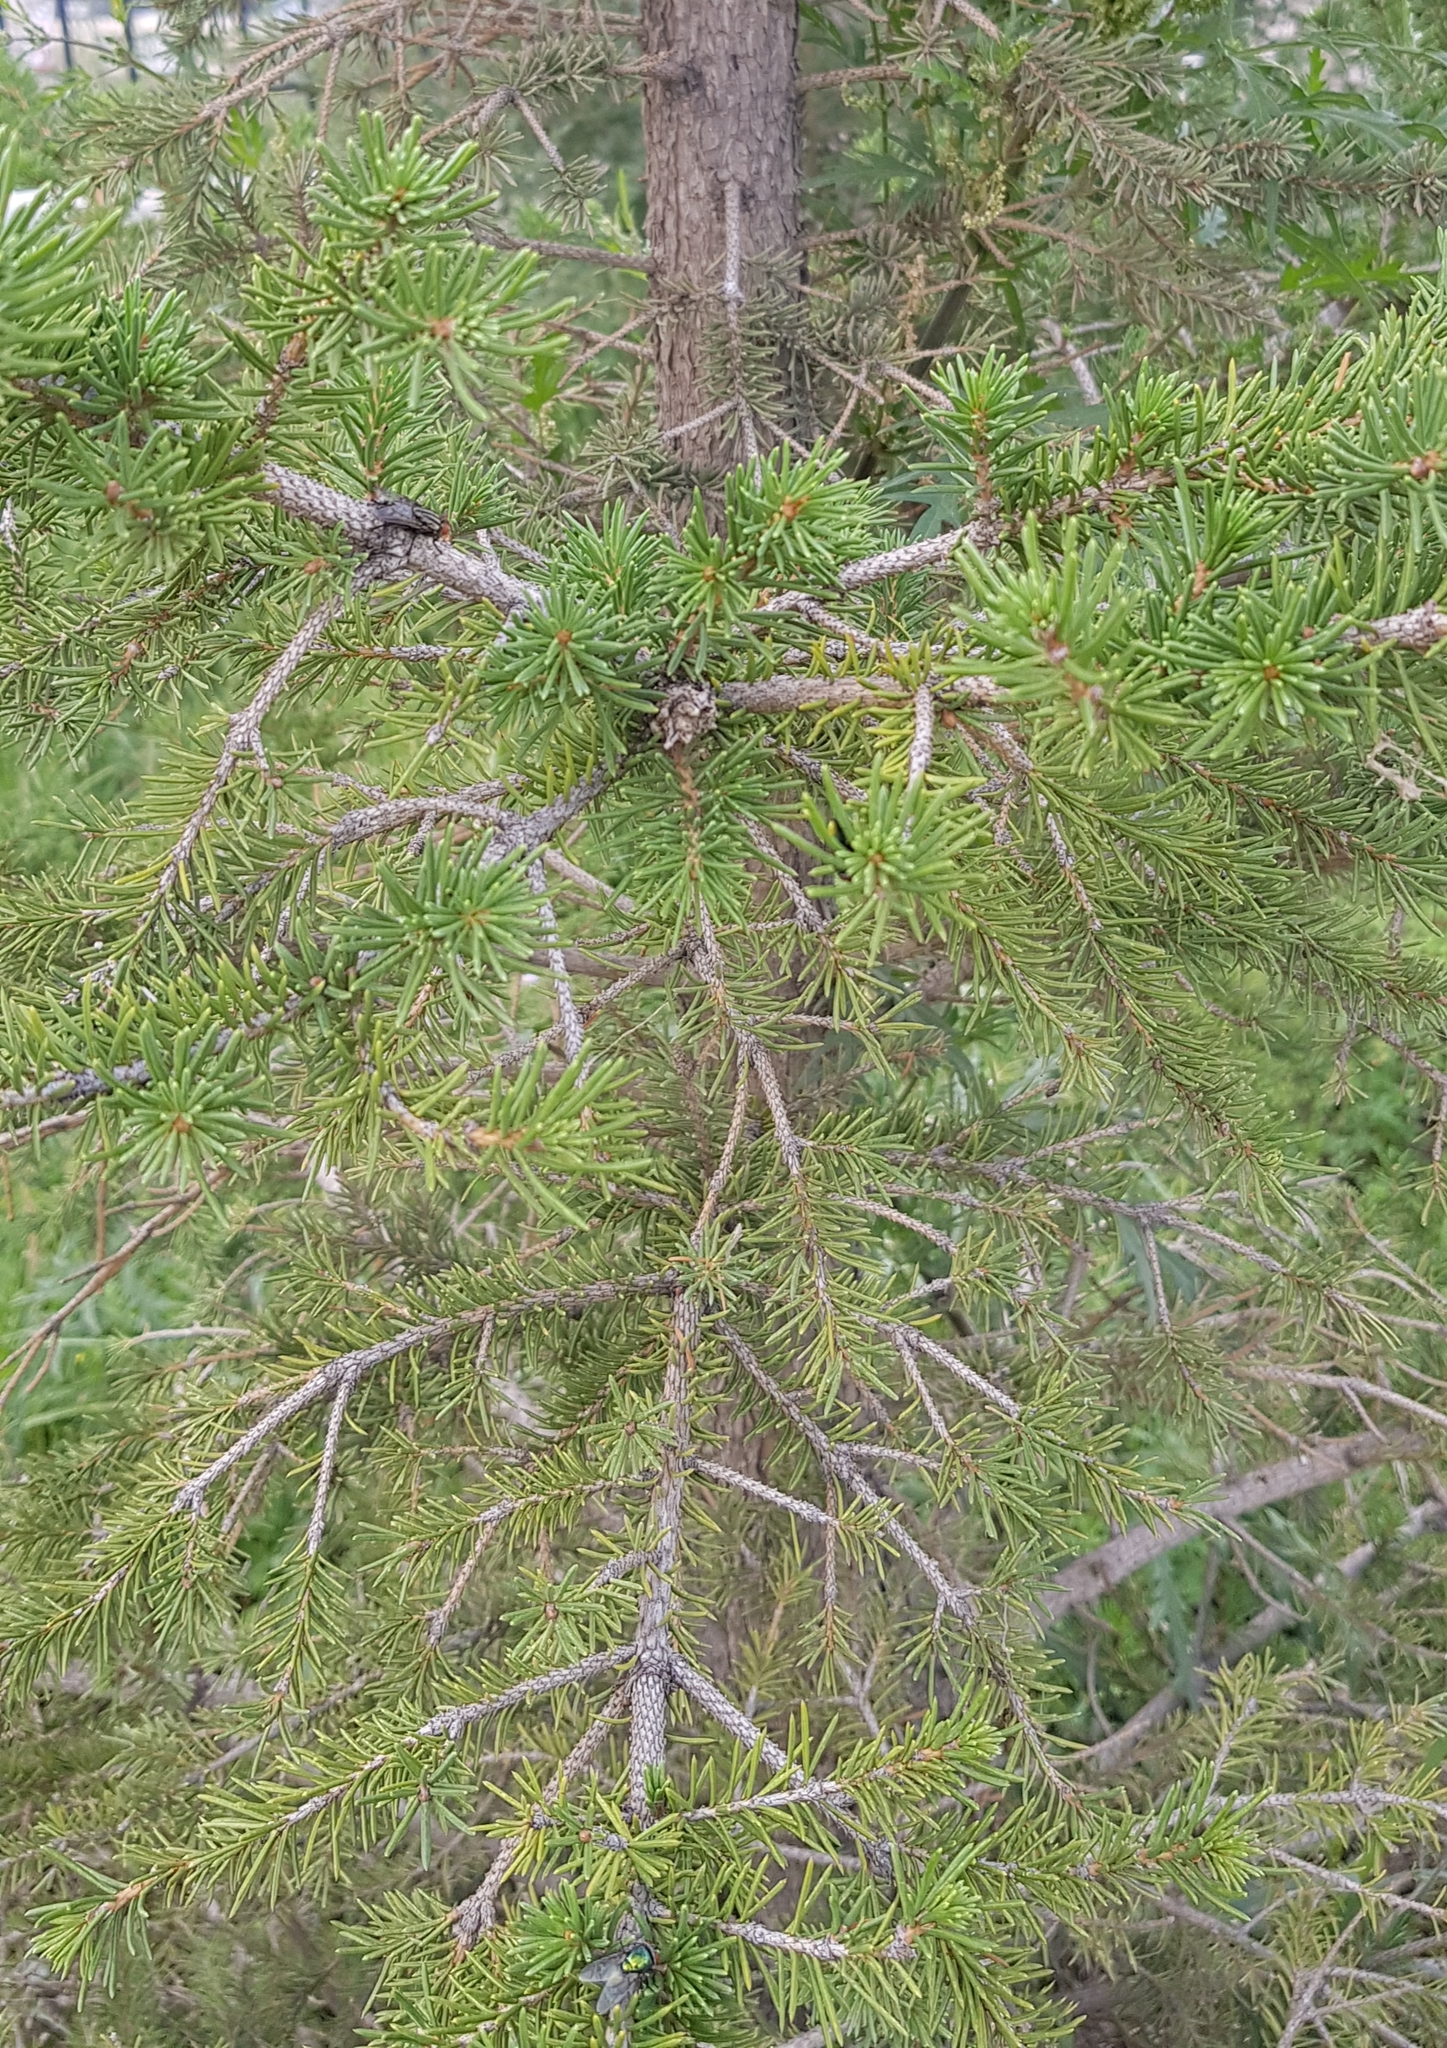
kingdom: Plantae
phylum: Tracheophyta
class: Pinopsida
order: Pinales
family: Pinaceae
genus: Picea
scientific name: Picea obovata
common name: Siberian spruce
